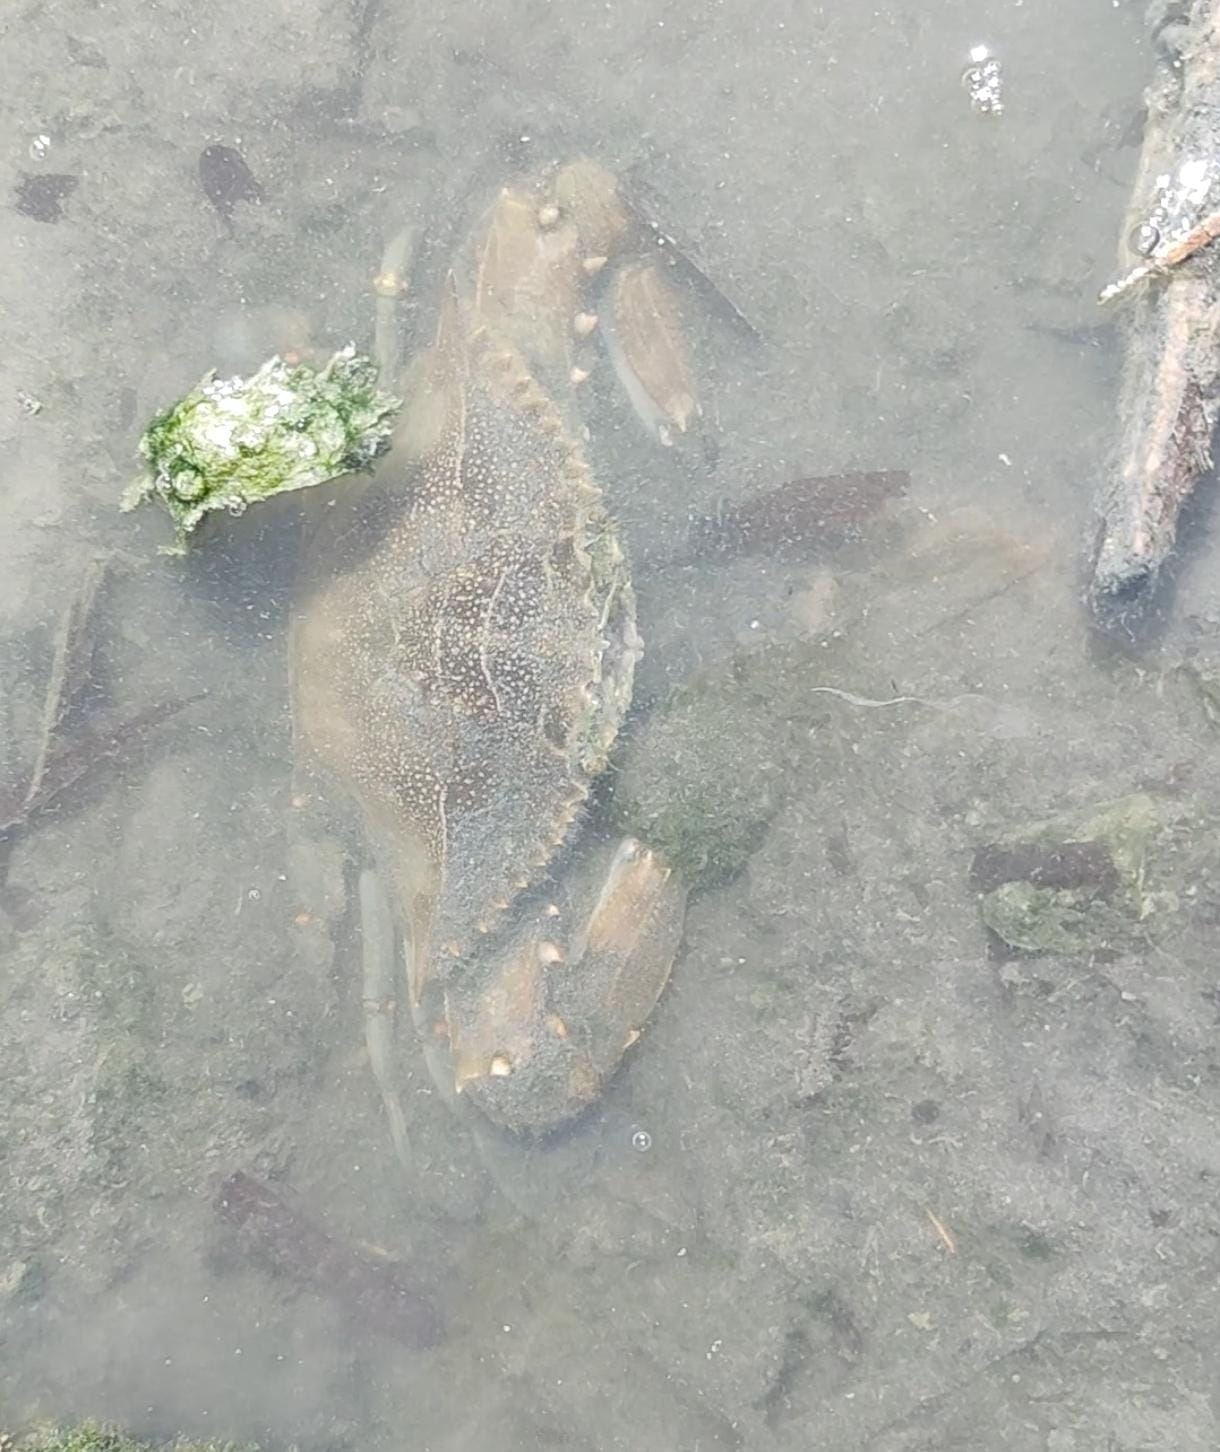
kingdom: Animalia
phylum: Arthropoda
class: Malacostraca
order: Decapoda
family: Portunidae
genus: Callinectes
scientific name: Callinectes sapidus
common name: Blue crab
